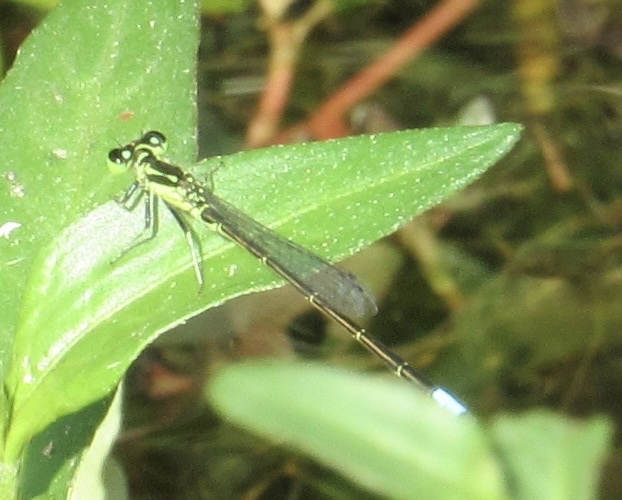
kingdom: Animalia
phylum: Arthropoda
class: Insecta
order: Odonata
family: Coenagrionidae
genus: Ischnura
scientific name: Ischnura posita
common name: Fragile forktail
